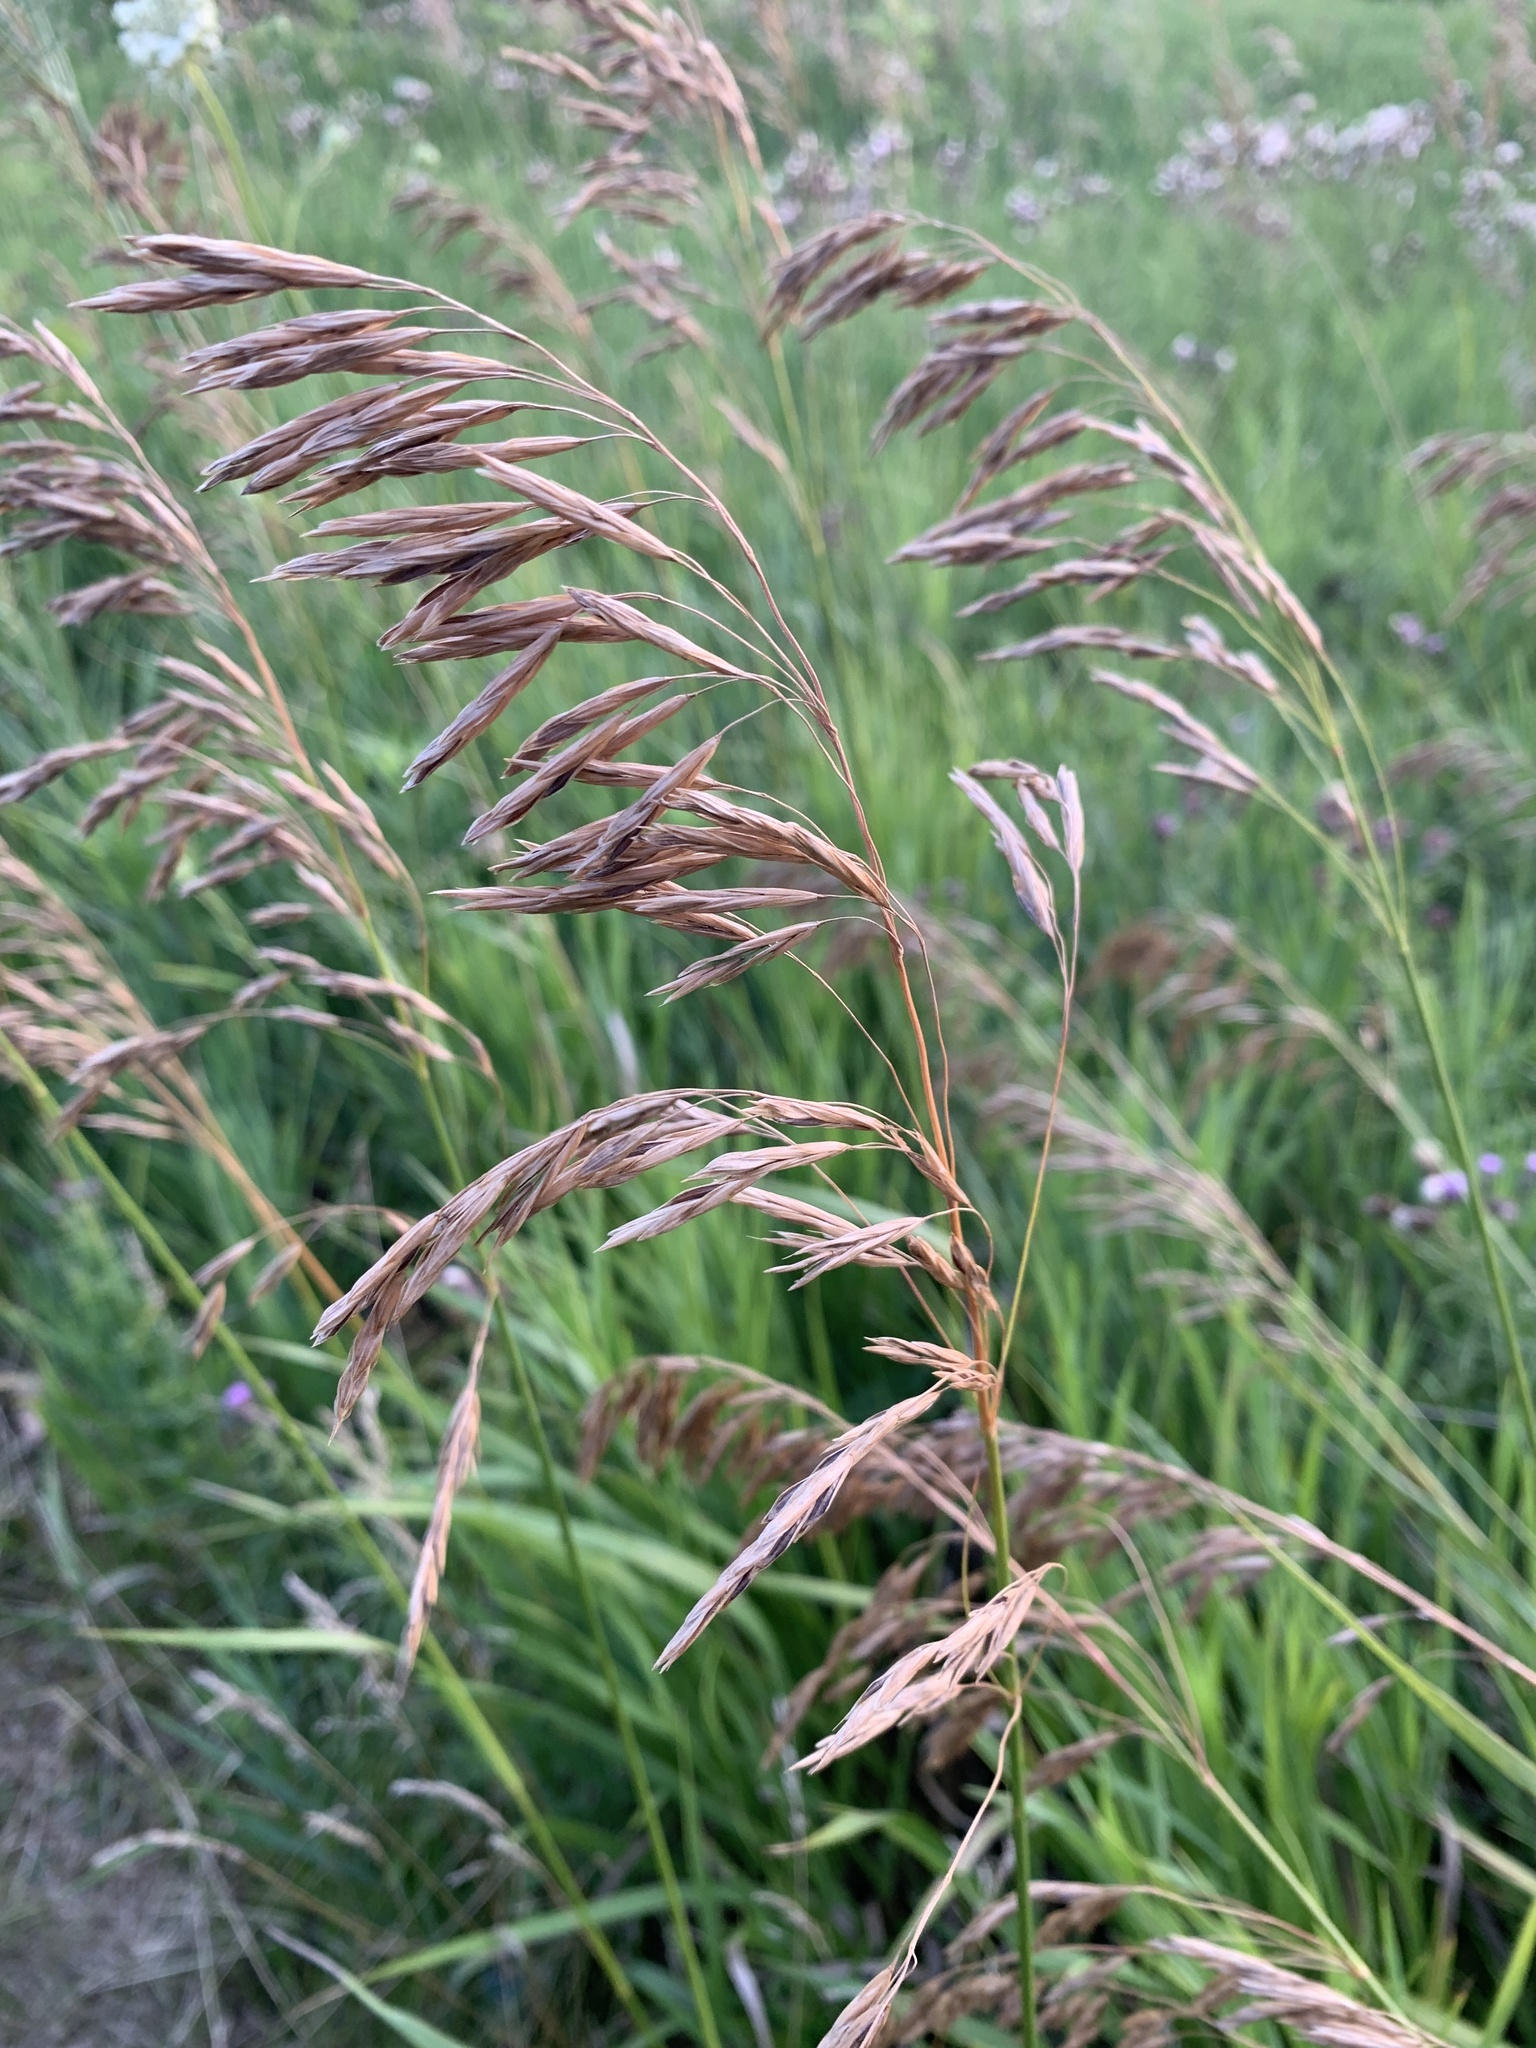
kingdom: Plantae
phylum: Tracheophyta
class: Liliopsida
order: Poales
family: Poaceae
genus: Bromus
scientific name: Bromus inermis
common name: Smooth brome
